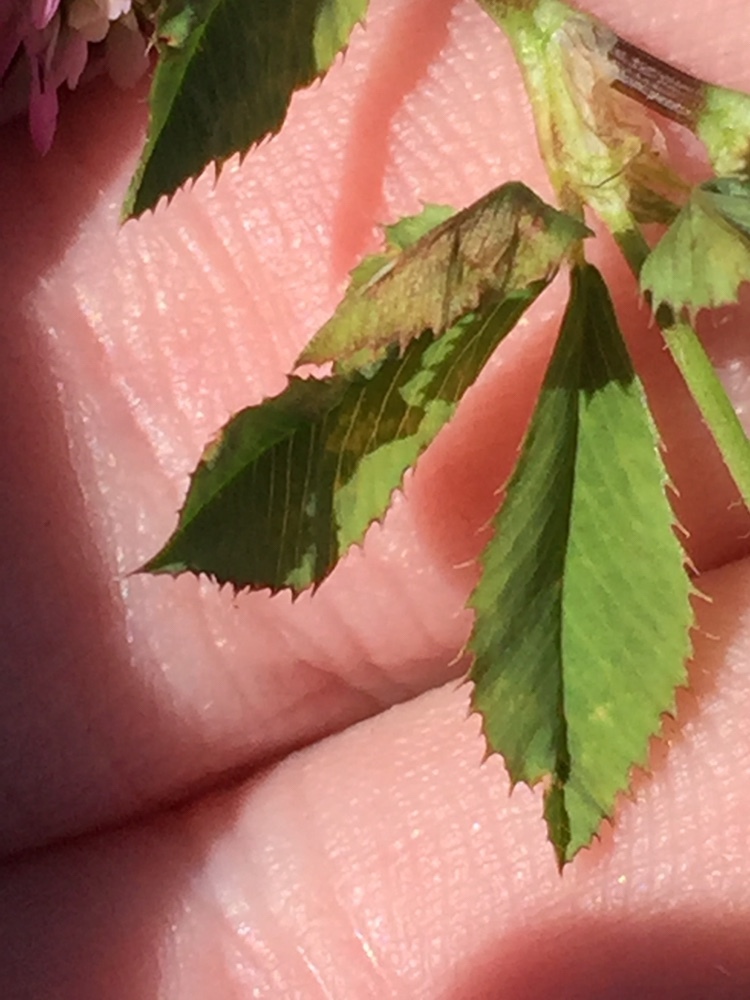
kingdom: Plantae
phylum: Tracheophyta
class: Magnoliopsida
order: Fabales
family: Fabaceae
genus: Trifolium
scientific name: Trifolium resupinatum
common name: Reversed clover
